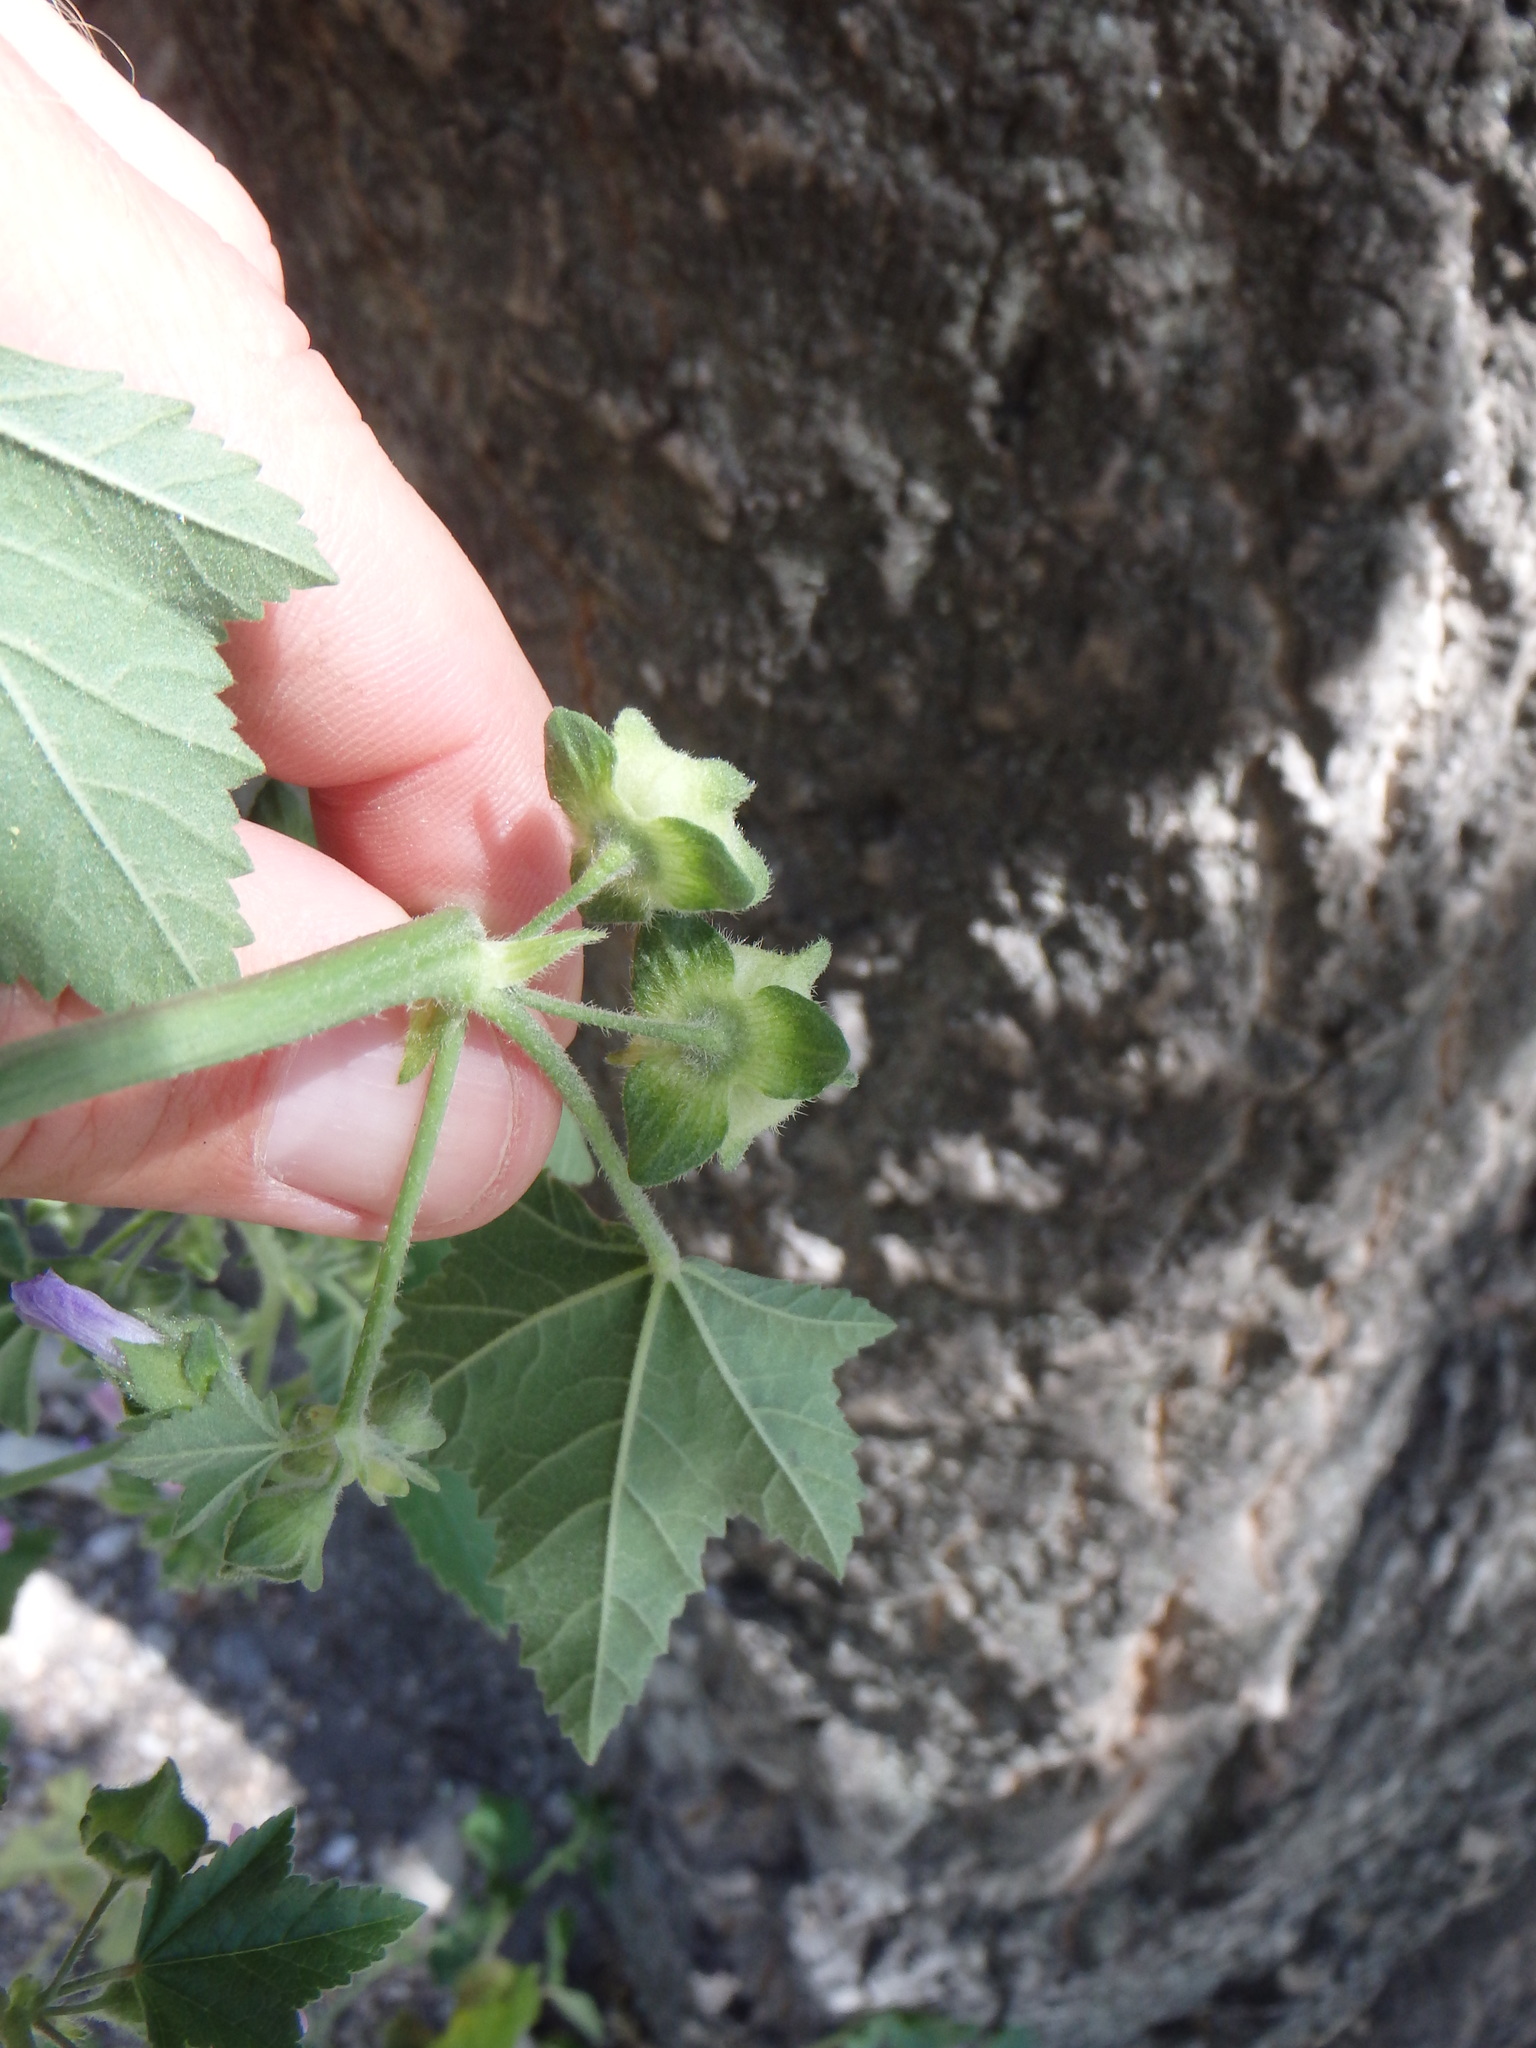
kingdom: Plantae
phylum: Tracheophyta
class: Magnoliopsida
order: Malvales
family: Malvaceae
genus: Malva
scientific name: Malva multiflora
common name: Cheeseweed
